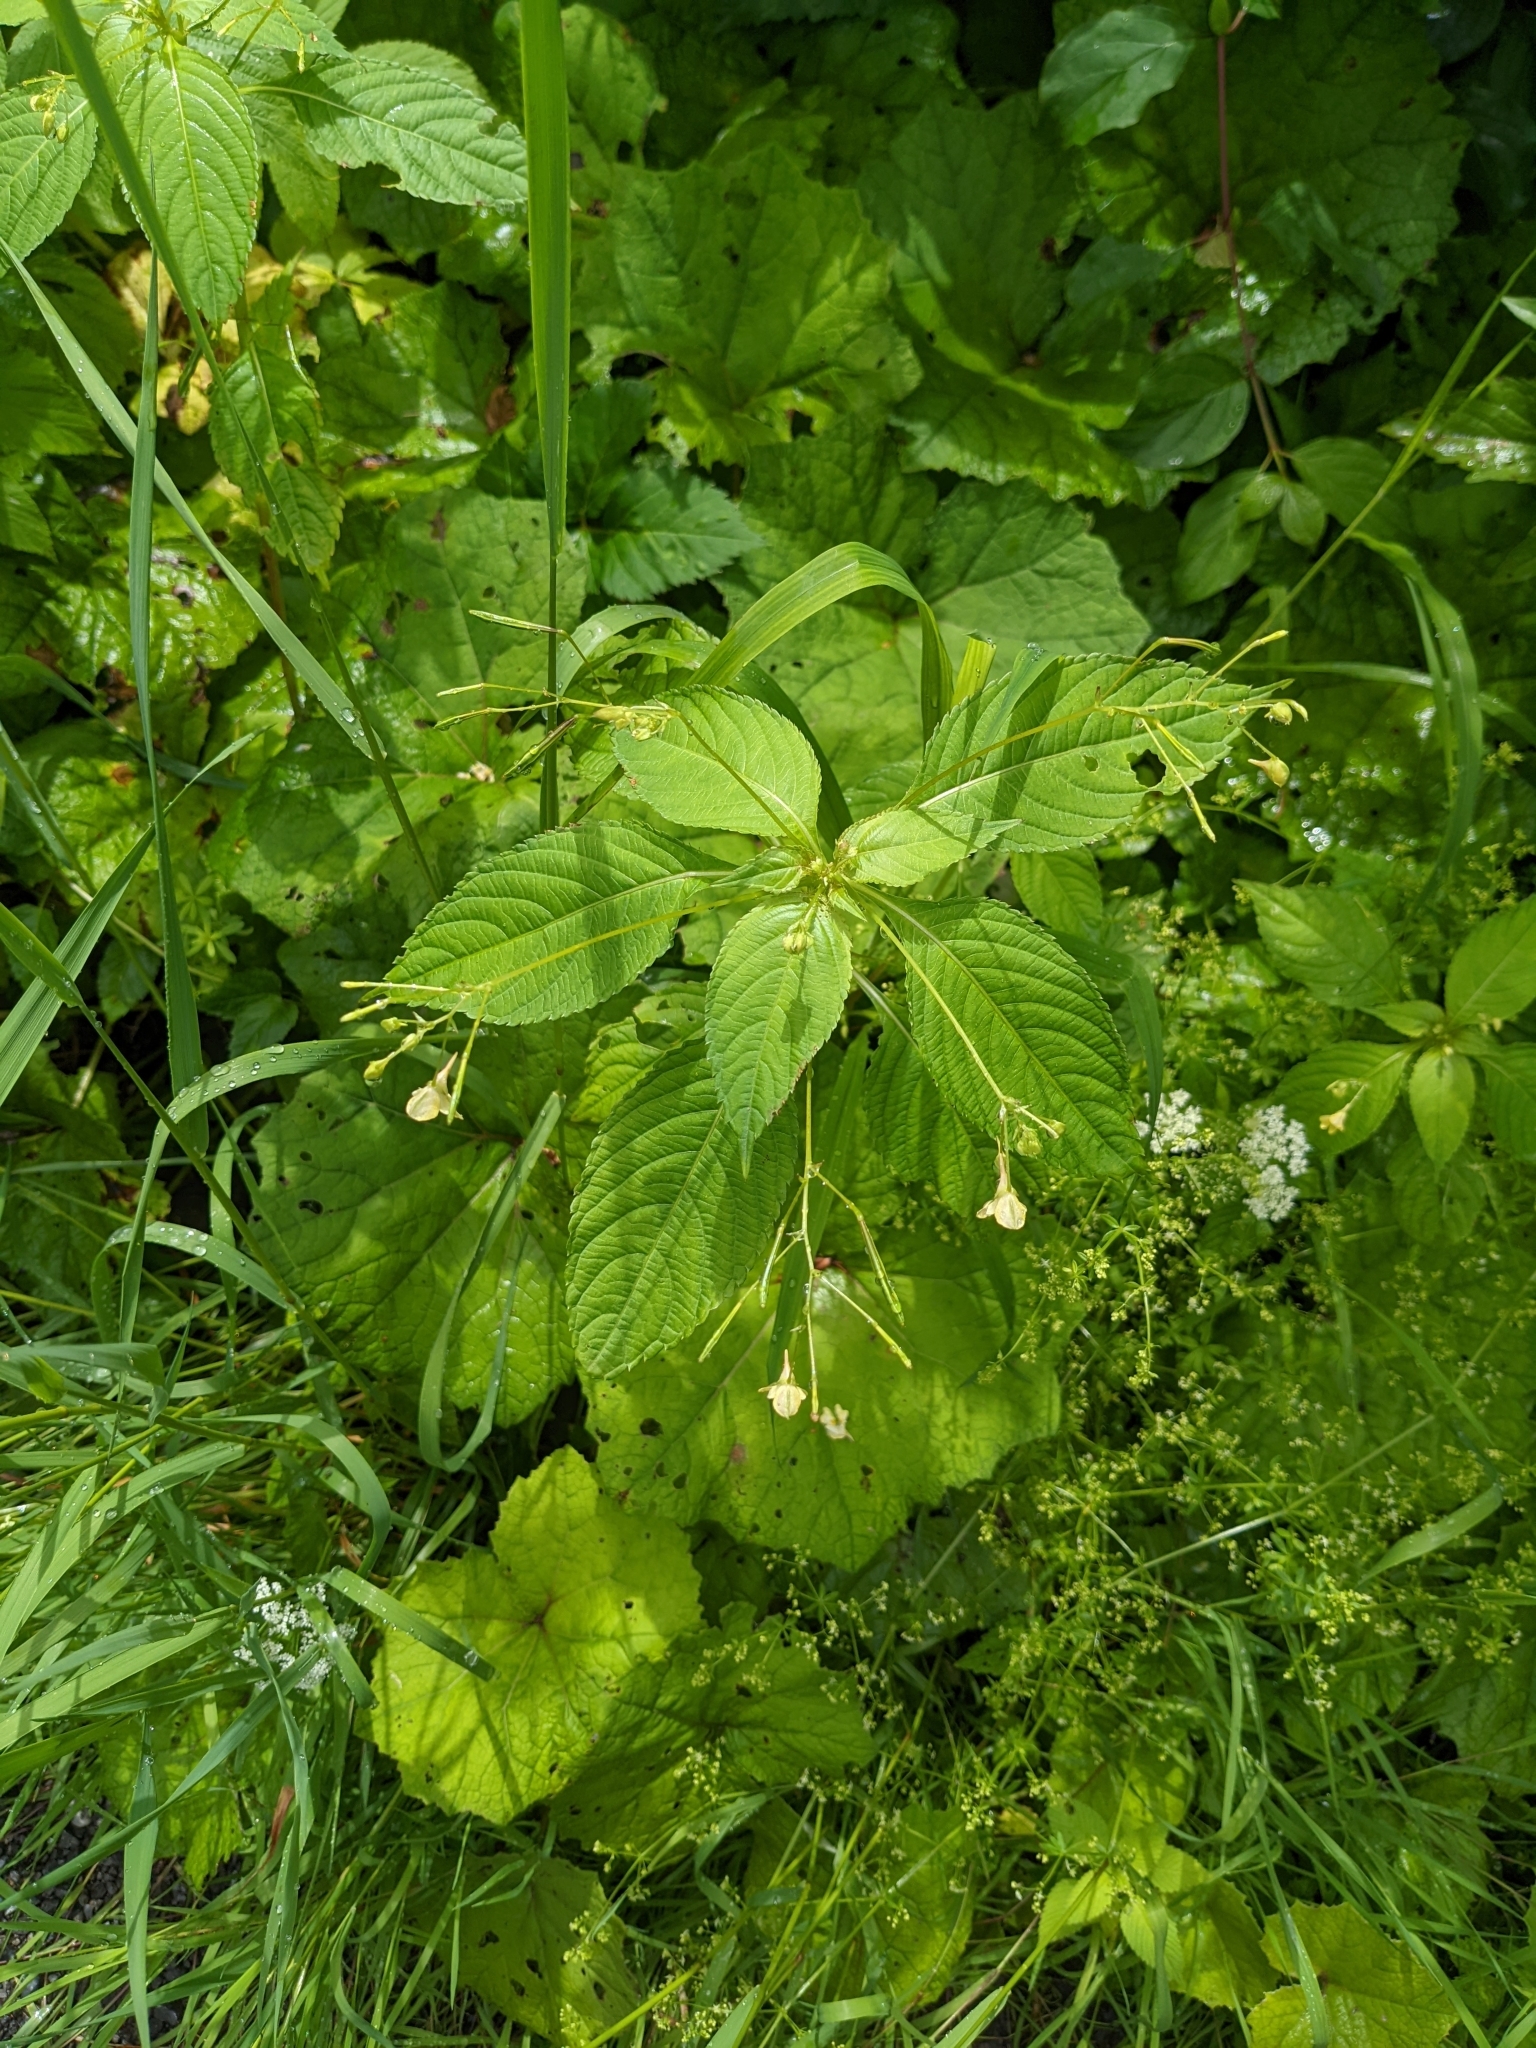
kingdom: Plantae
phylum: Tracheophyta
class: Magnoliopsida
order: Ericales
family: Balsaminaceae
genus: Impatiens
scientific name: Impatiens parviflora
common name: Small balsam
